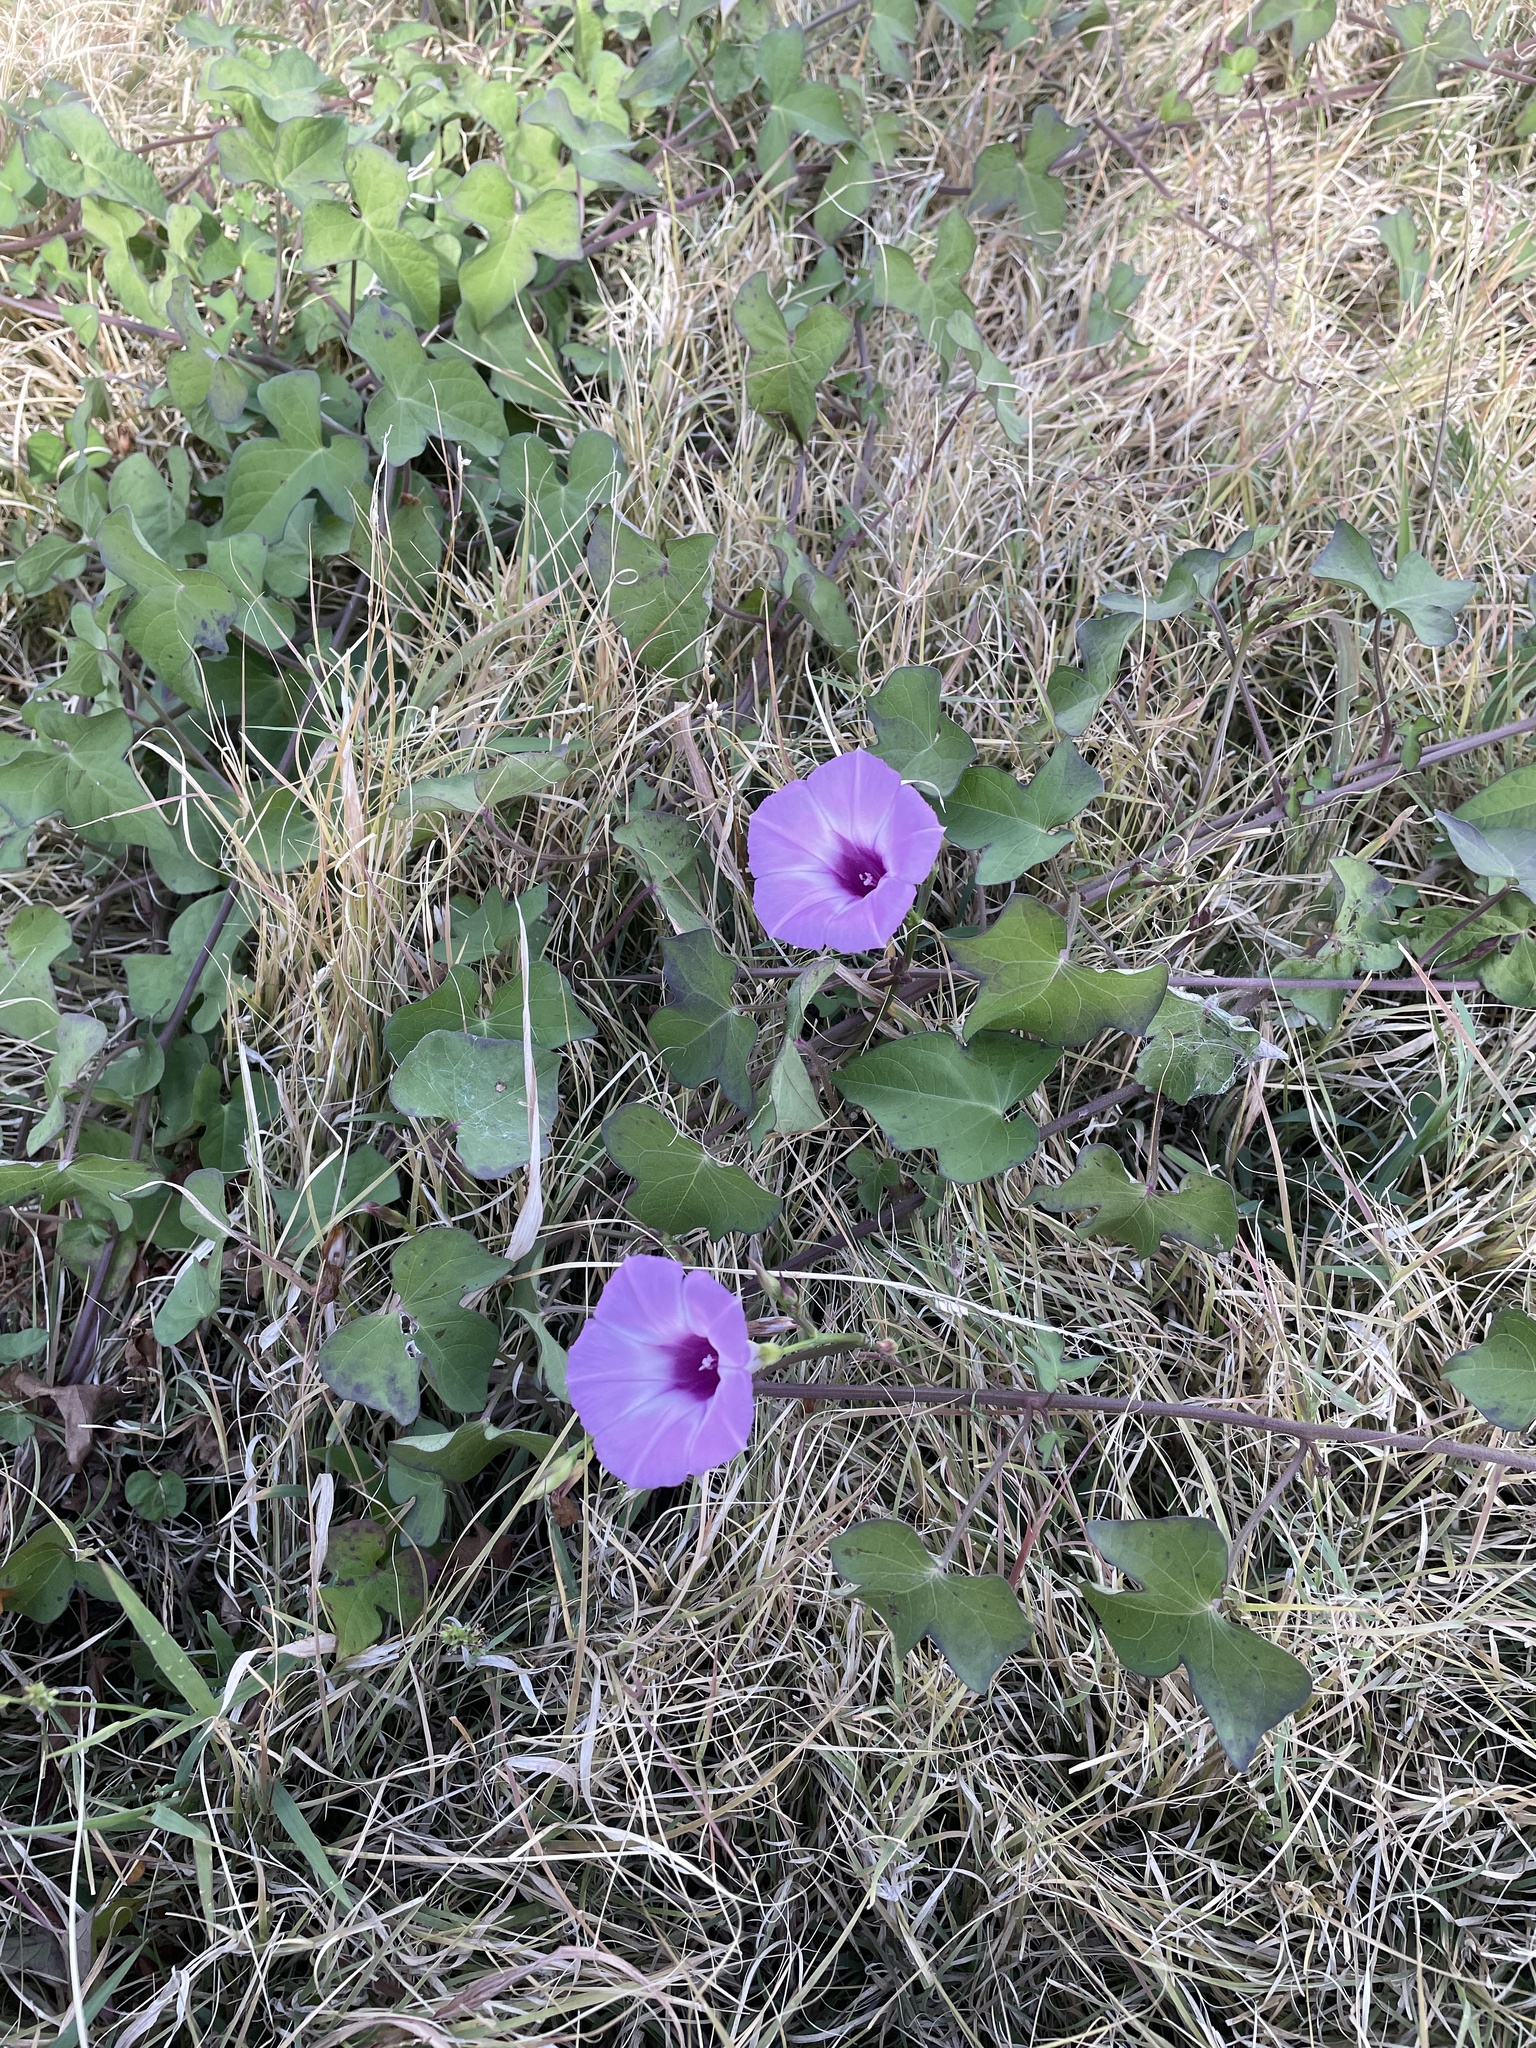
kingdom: Plantae
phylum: Tracheophyta
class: Magnoliopsida
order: Solanales
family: Convolvulaceae
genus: Ipomoea
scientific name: Ipomoea cordatotriloba
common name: Cotton morning glory
